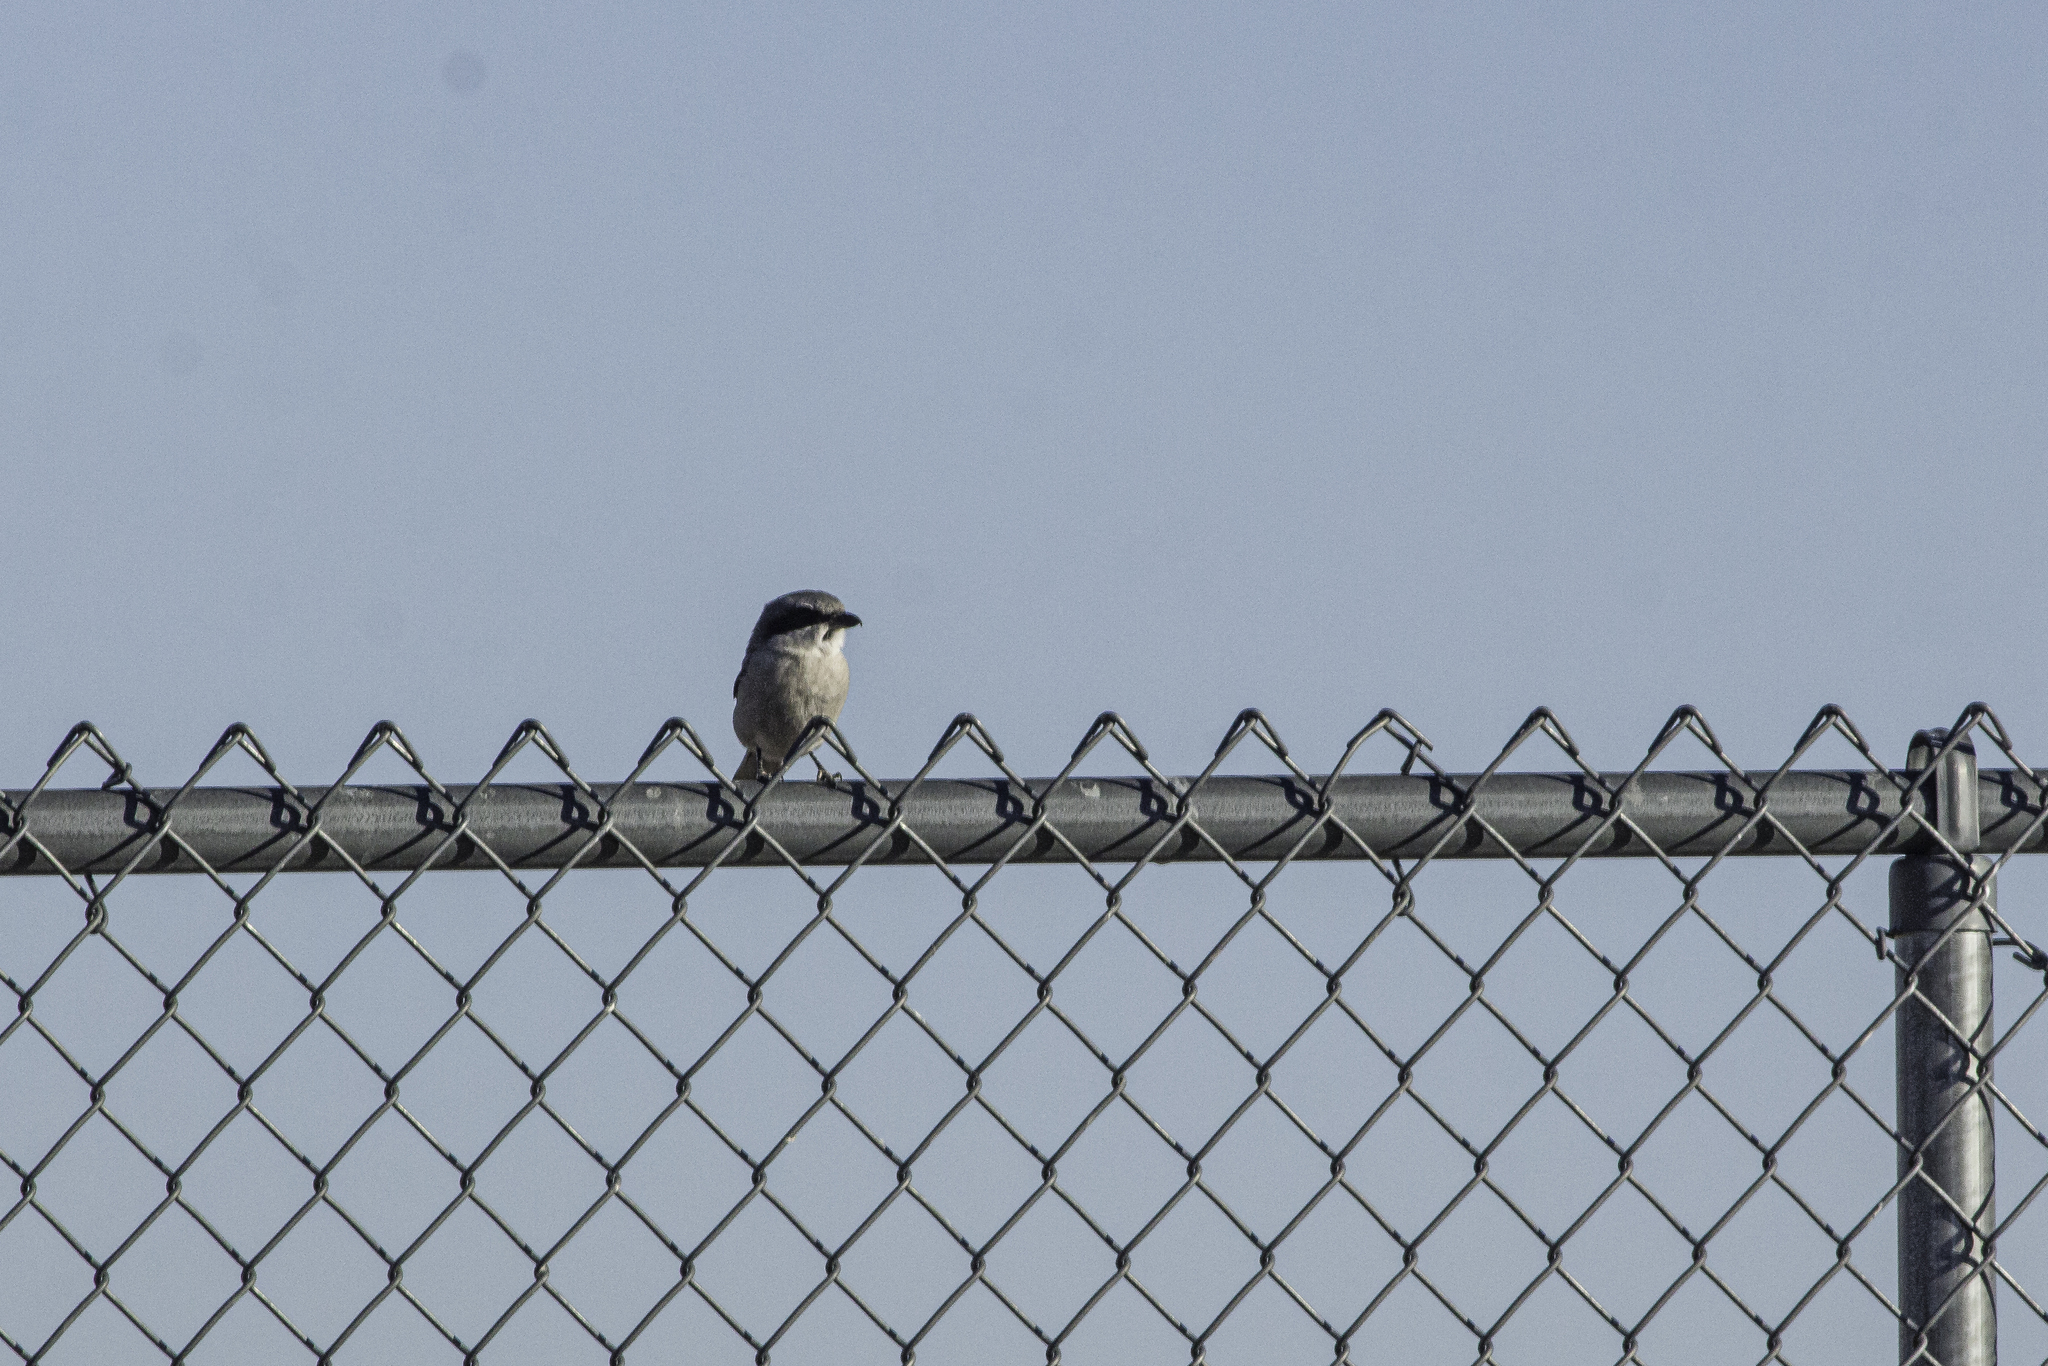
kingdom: Animalia
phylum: Chordata
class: Aves
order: Passeriformes
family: Laniidae
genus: Lanius
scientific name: Lanius ludovicianus
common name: Loggerhead shrike
